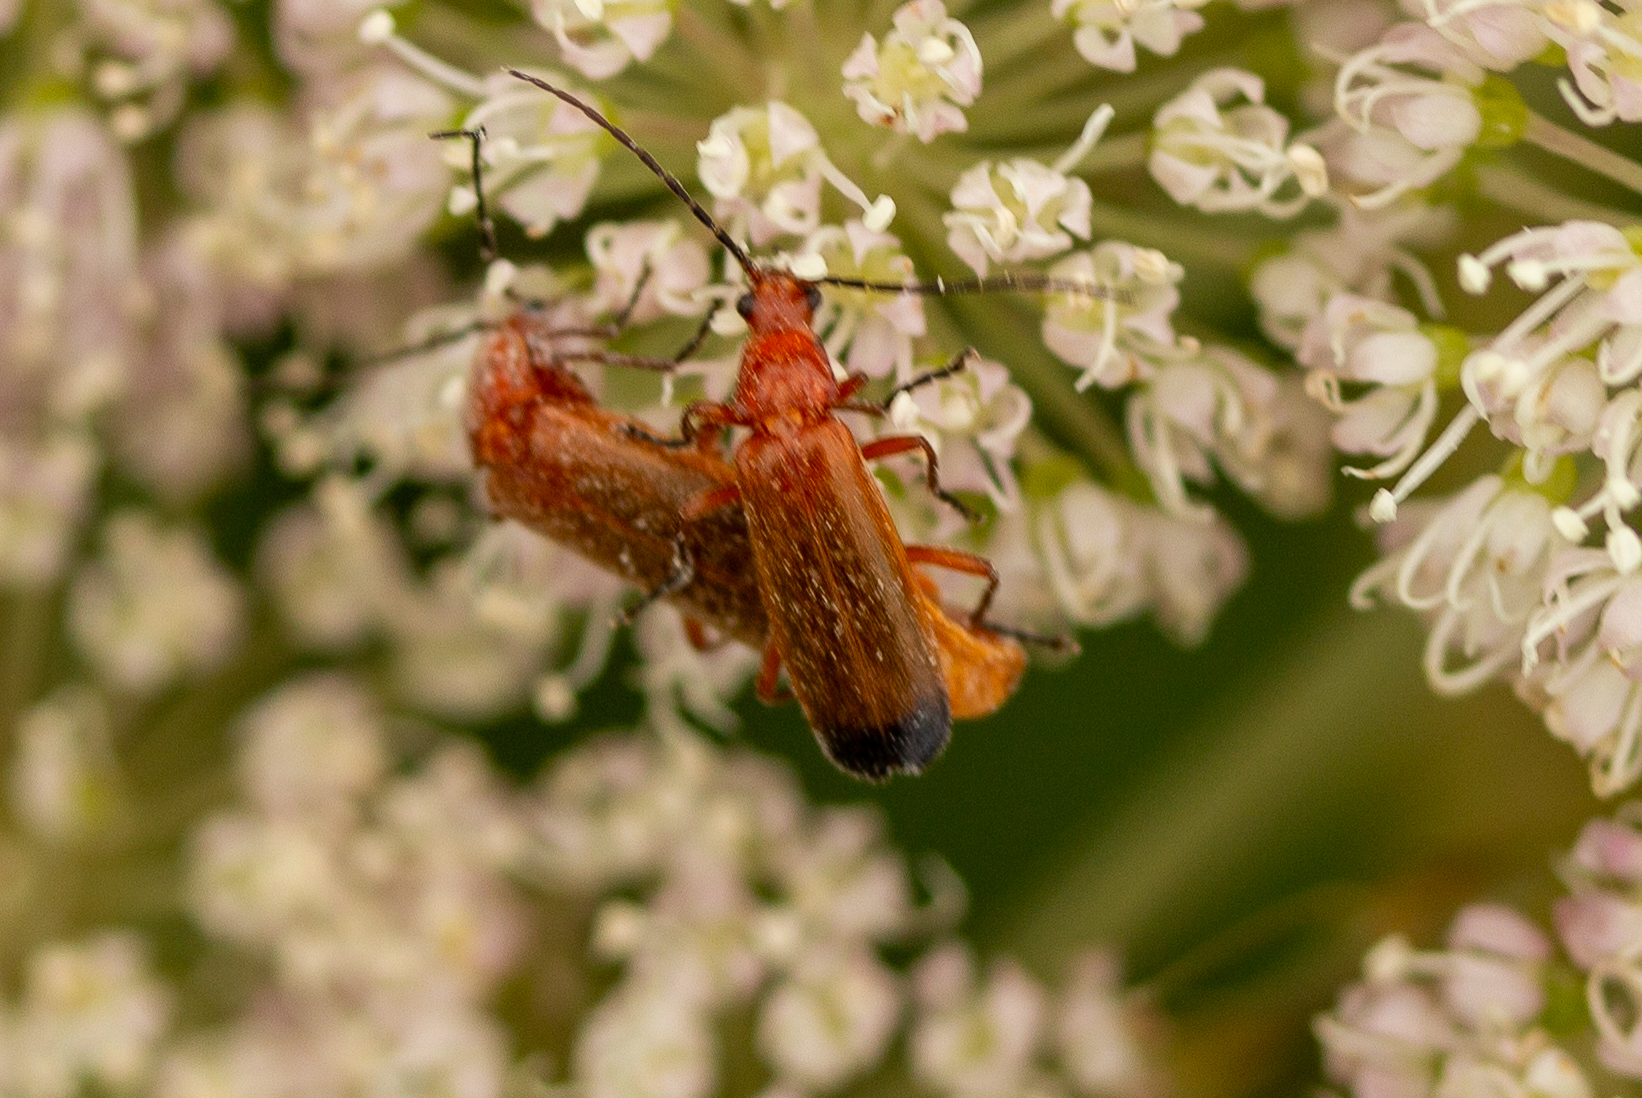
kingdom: Animalia
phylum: Arthropoda
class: Insecta
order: Coleoptera
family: Cantharidae
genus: Rhagonycha
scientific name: Rhagonycha fulva
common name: Common red soldier beetle
